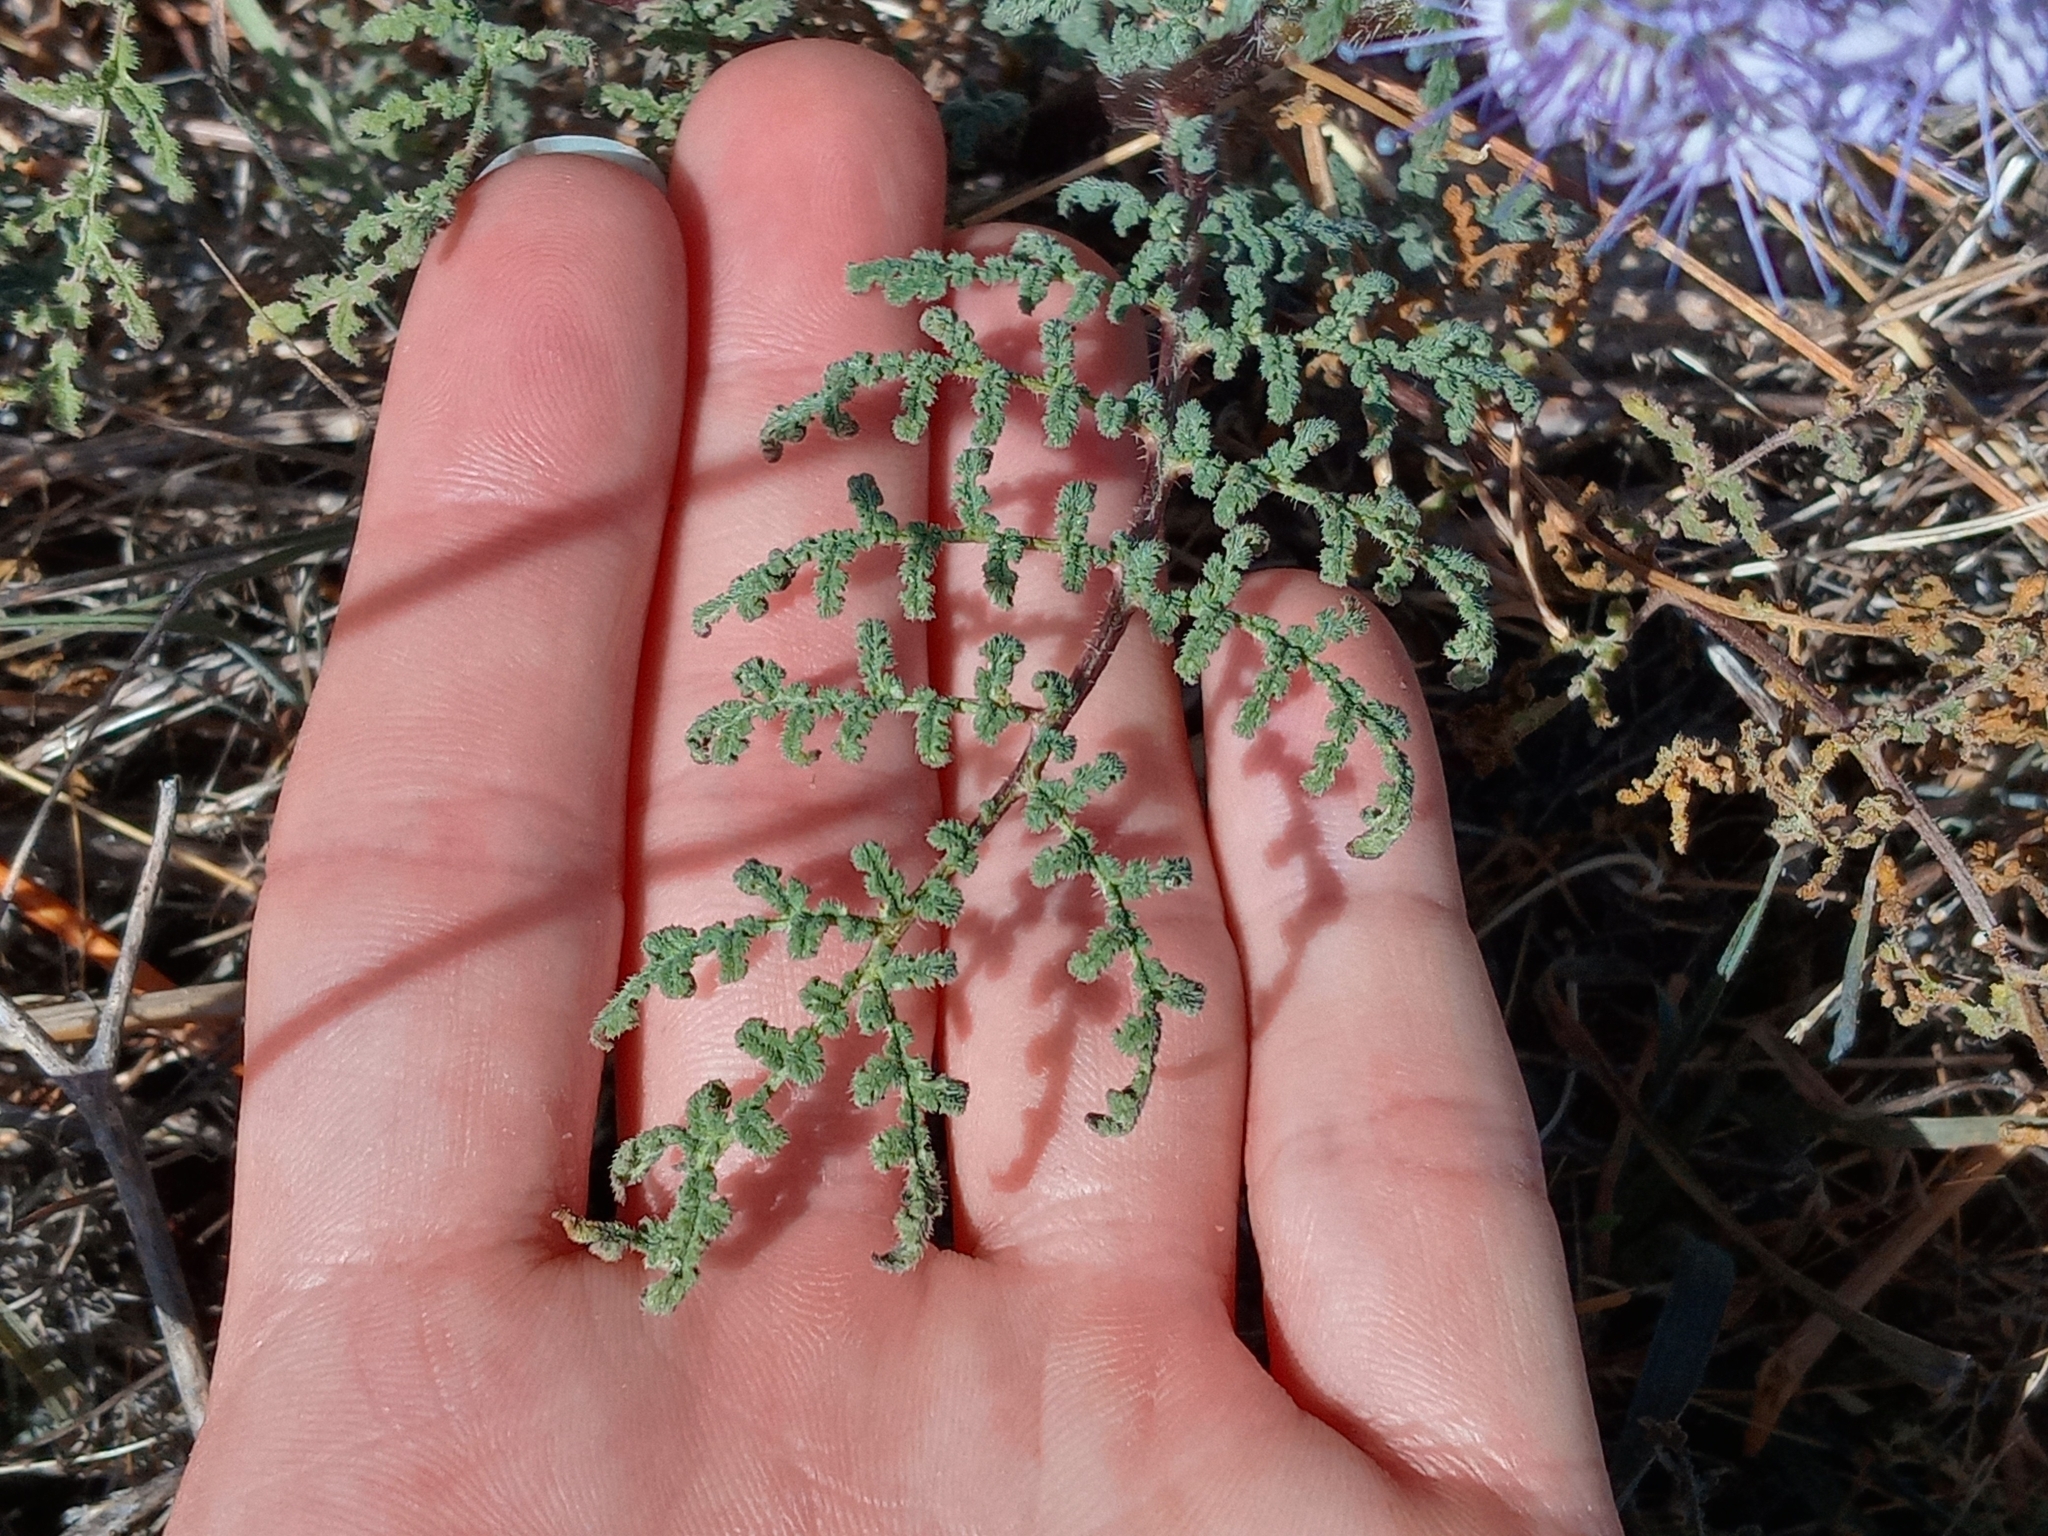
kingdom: Plantae
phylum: Tracheophyta
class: Magnoliopsida
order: Boraginales
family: Hydrophyllaceae
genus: Phacelia
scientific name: Phacelia tanacetifolia
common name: Phacelia
